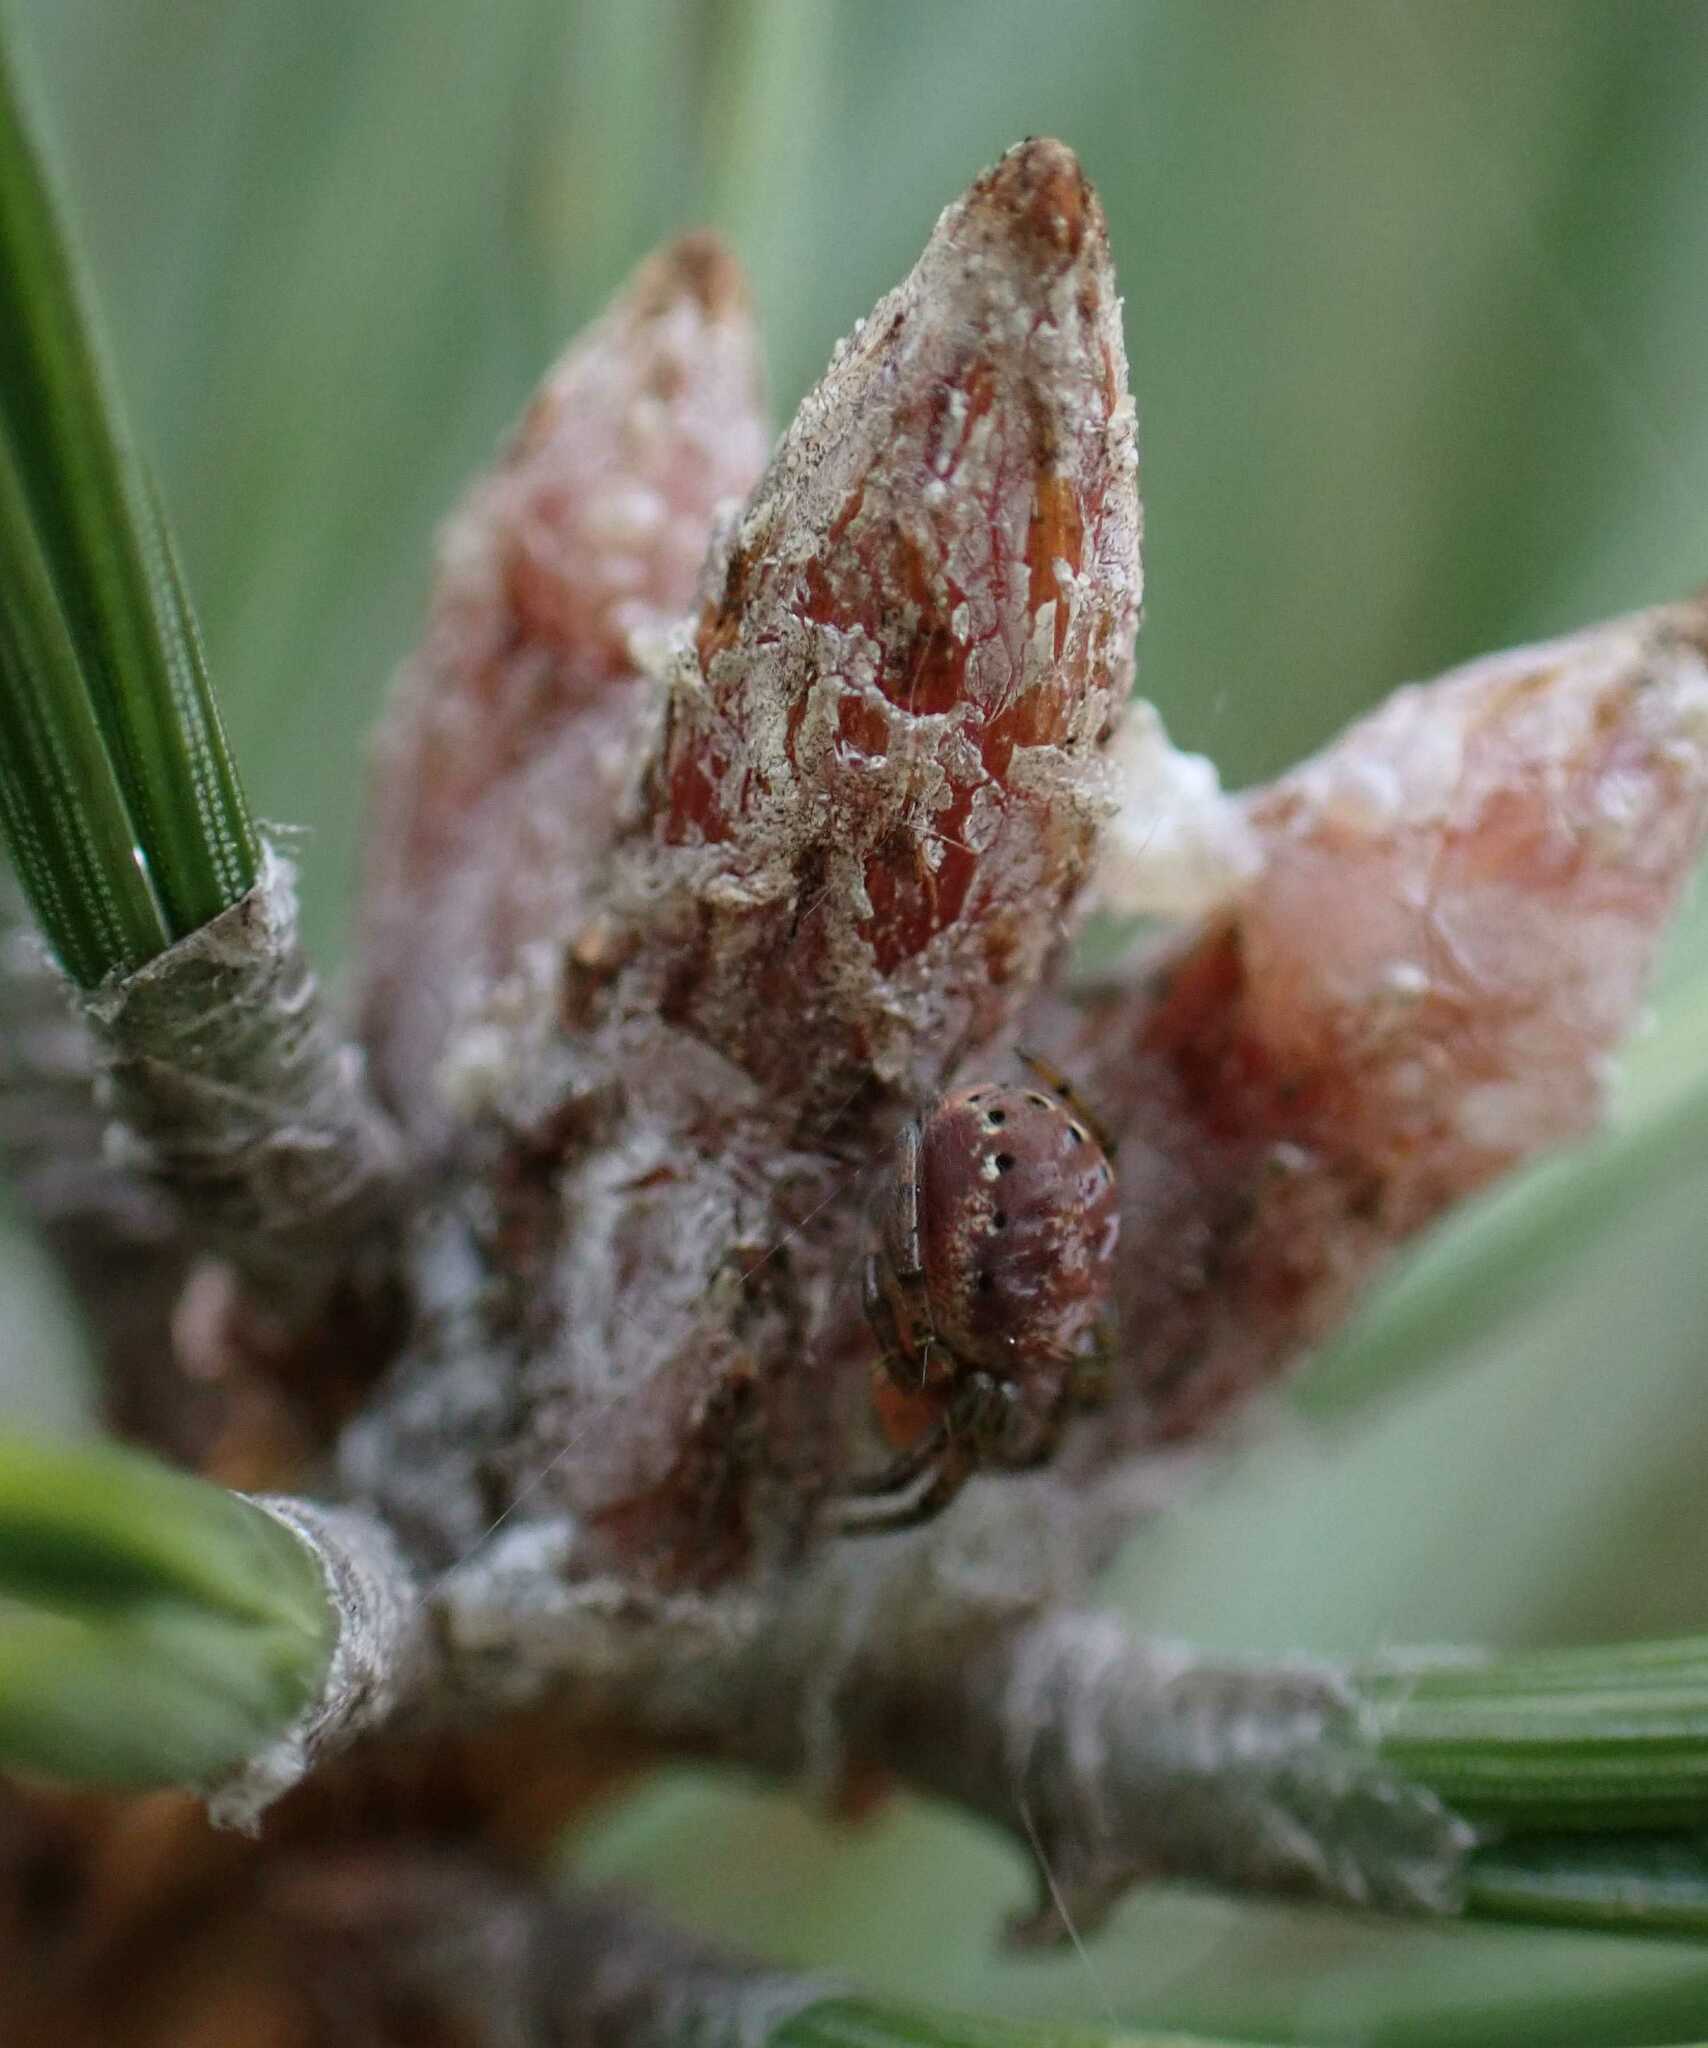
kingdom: Animalia
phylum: Arthropoda
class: Arachnida
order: Araneae
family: Araneidae
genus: Araniella
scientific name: Araniella
